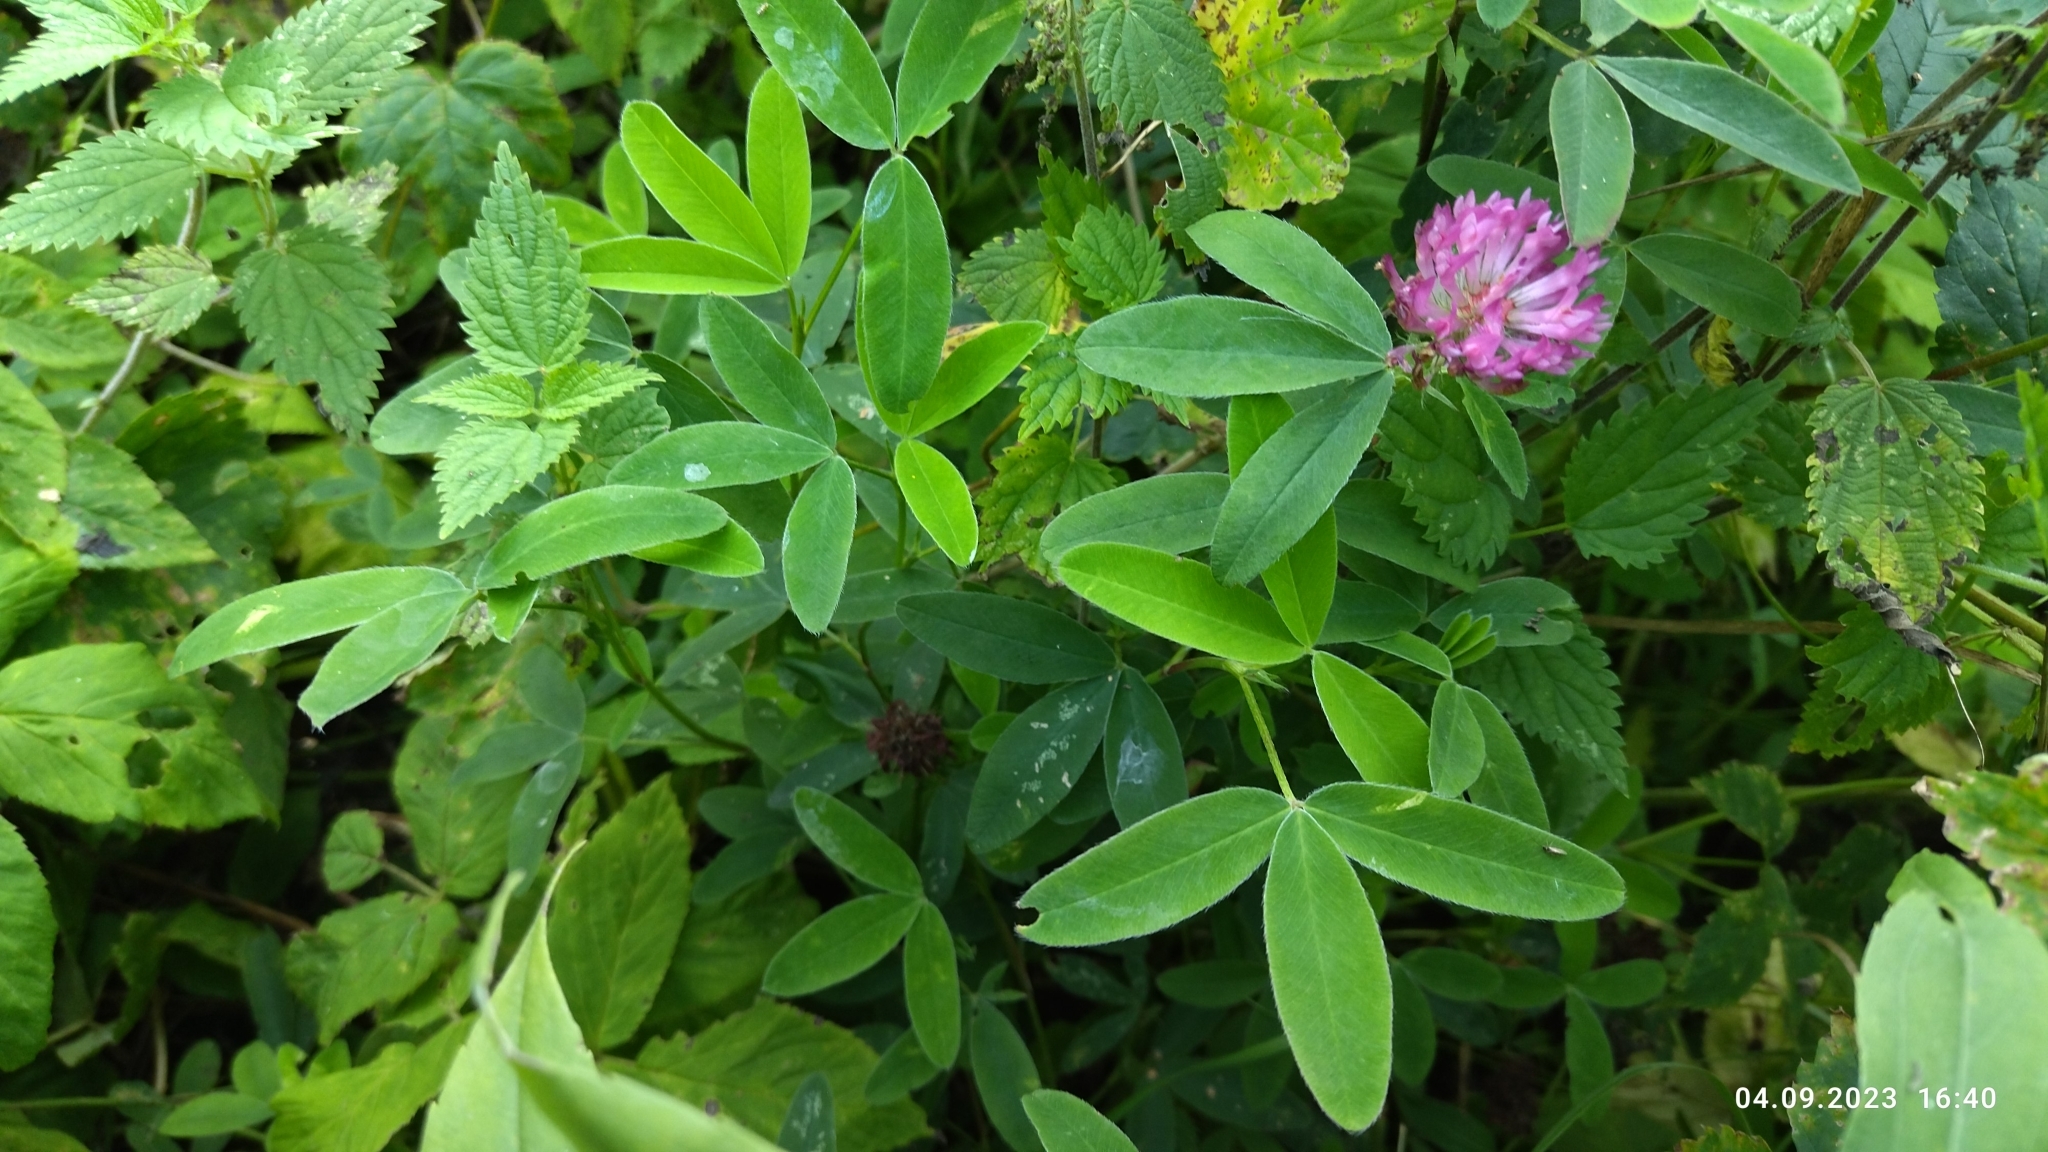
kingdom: Plantae
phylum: Tracheophyta
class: Magnoliopsida
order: Fabales
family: Fabaceae
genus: Trifolium
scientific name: Trifolium medium
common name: Zigzag clover
